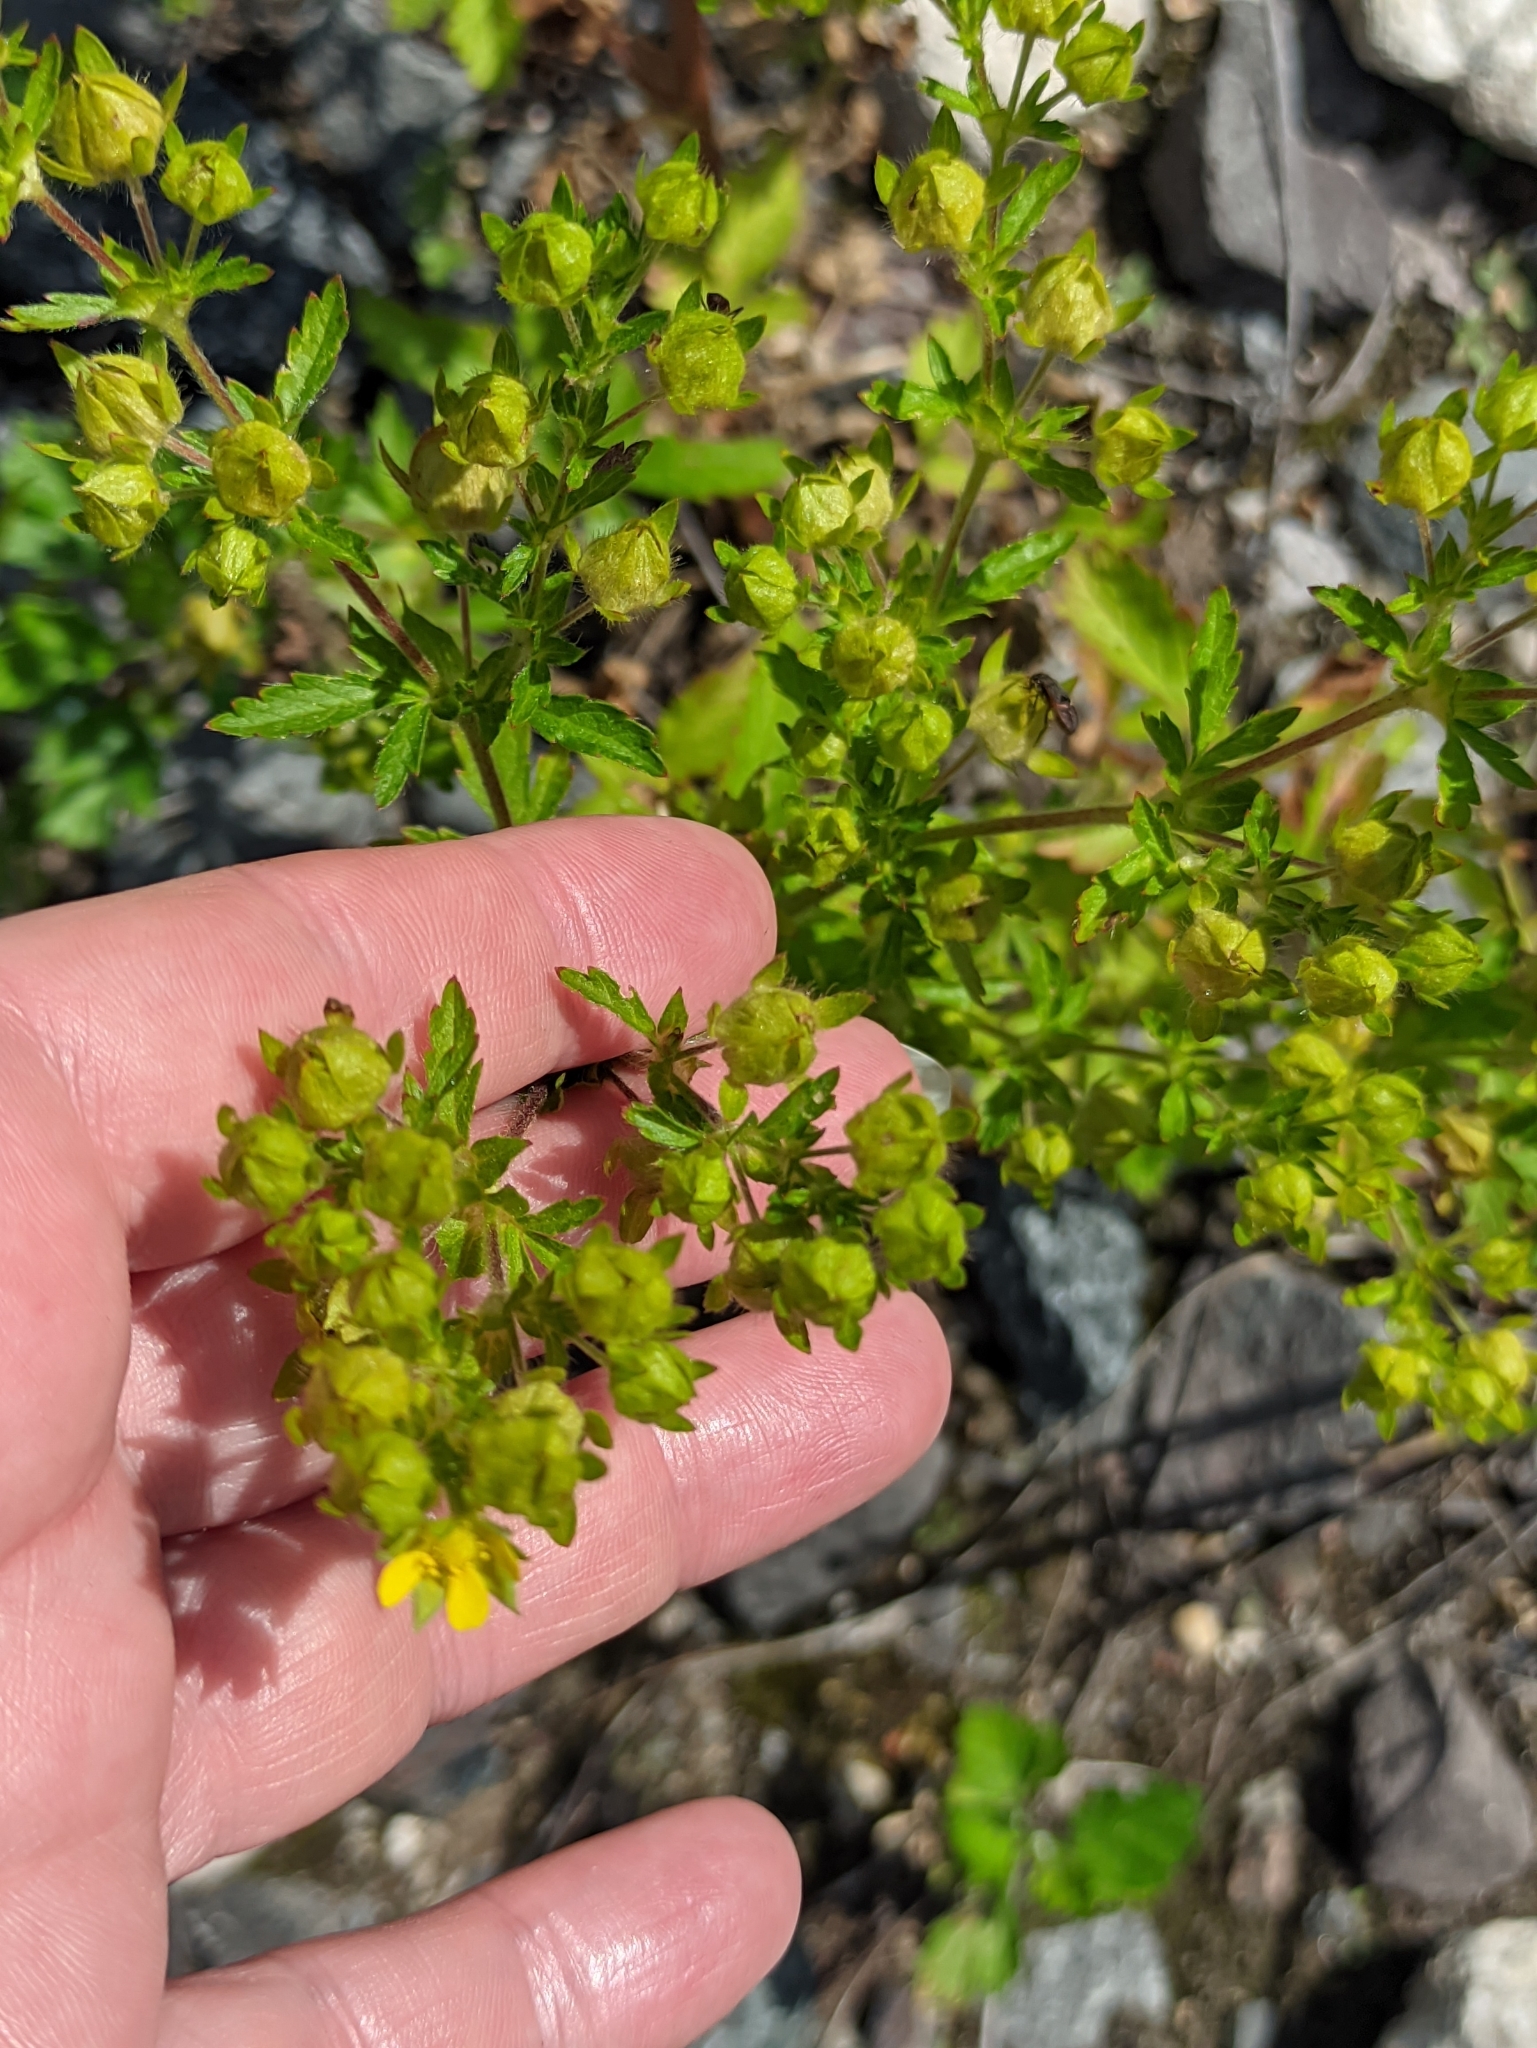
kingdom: Plantae
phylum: Tracheophyta
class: Magnoliopsida
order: Rosales
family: Rosaceae
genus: Potentilla
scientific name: Potentilla norvegica
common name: Ternate-leaved cinquefoil
